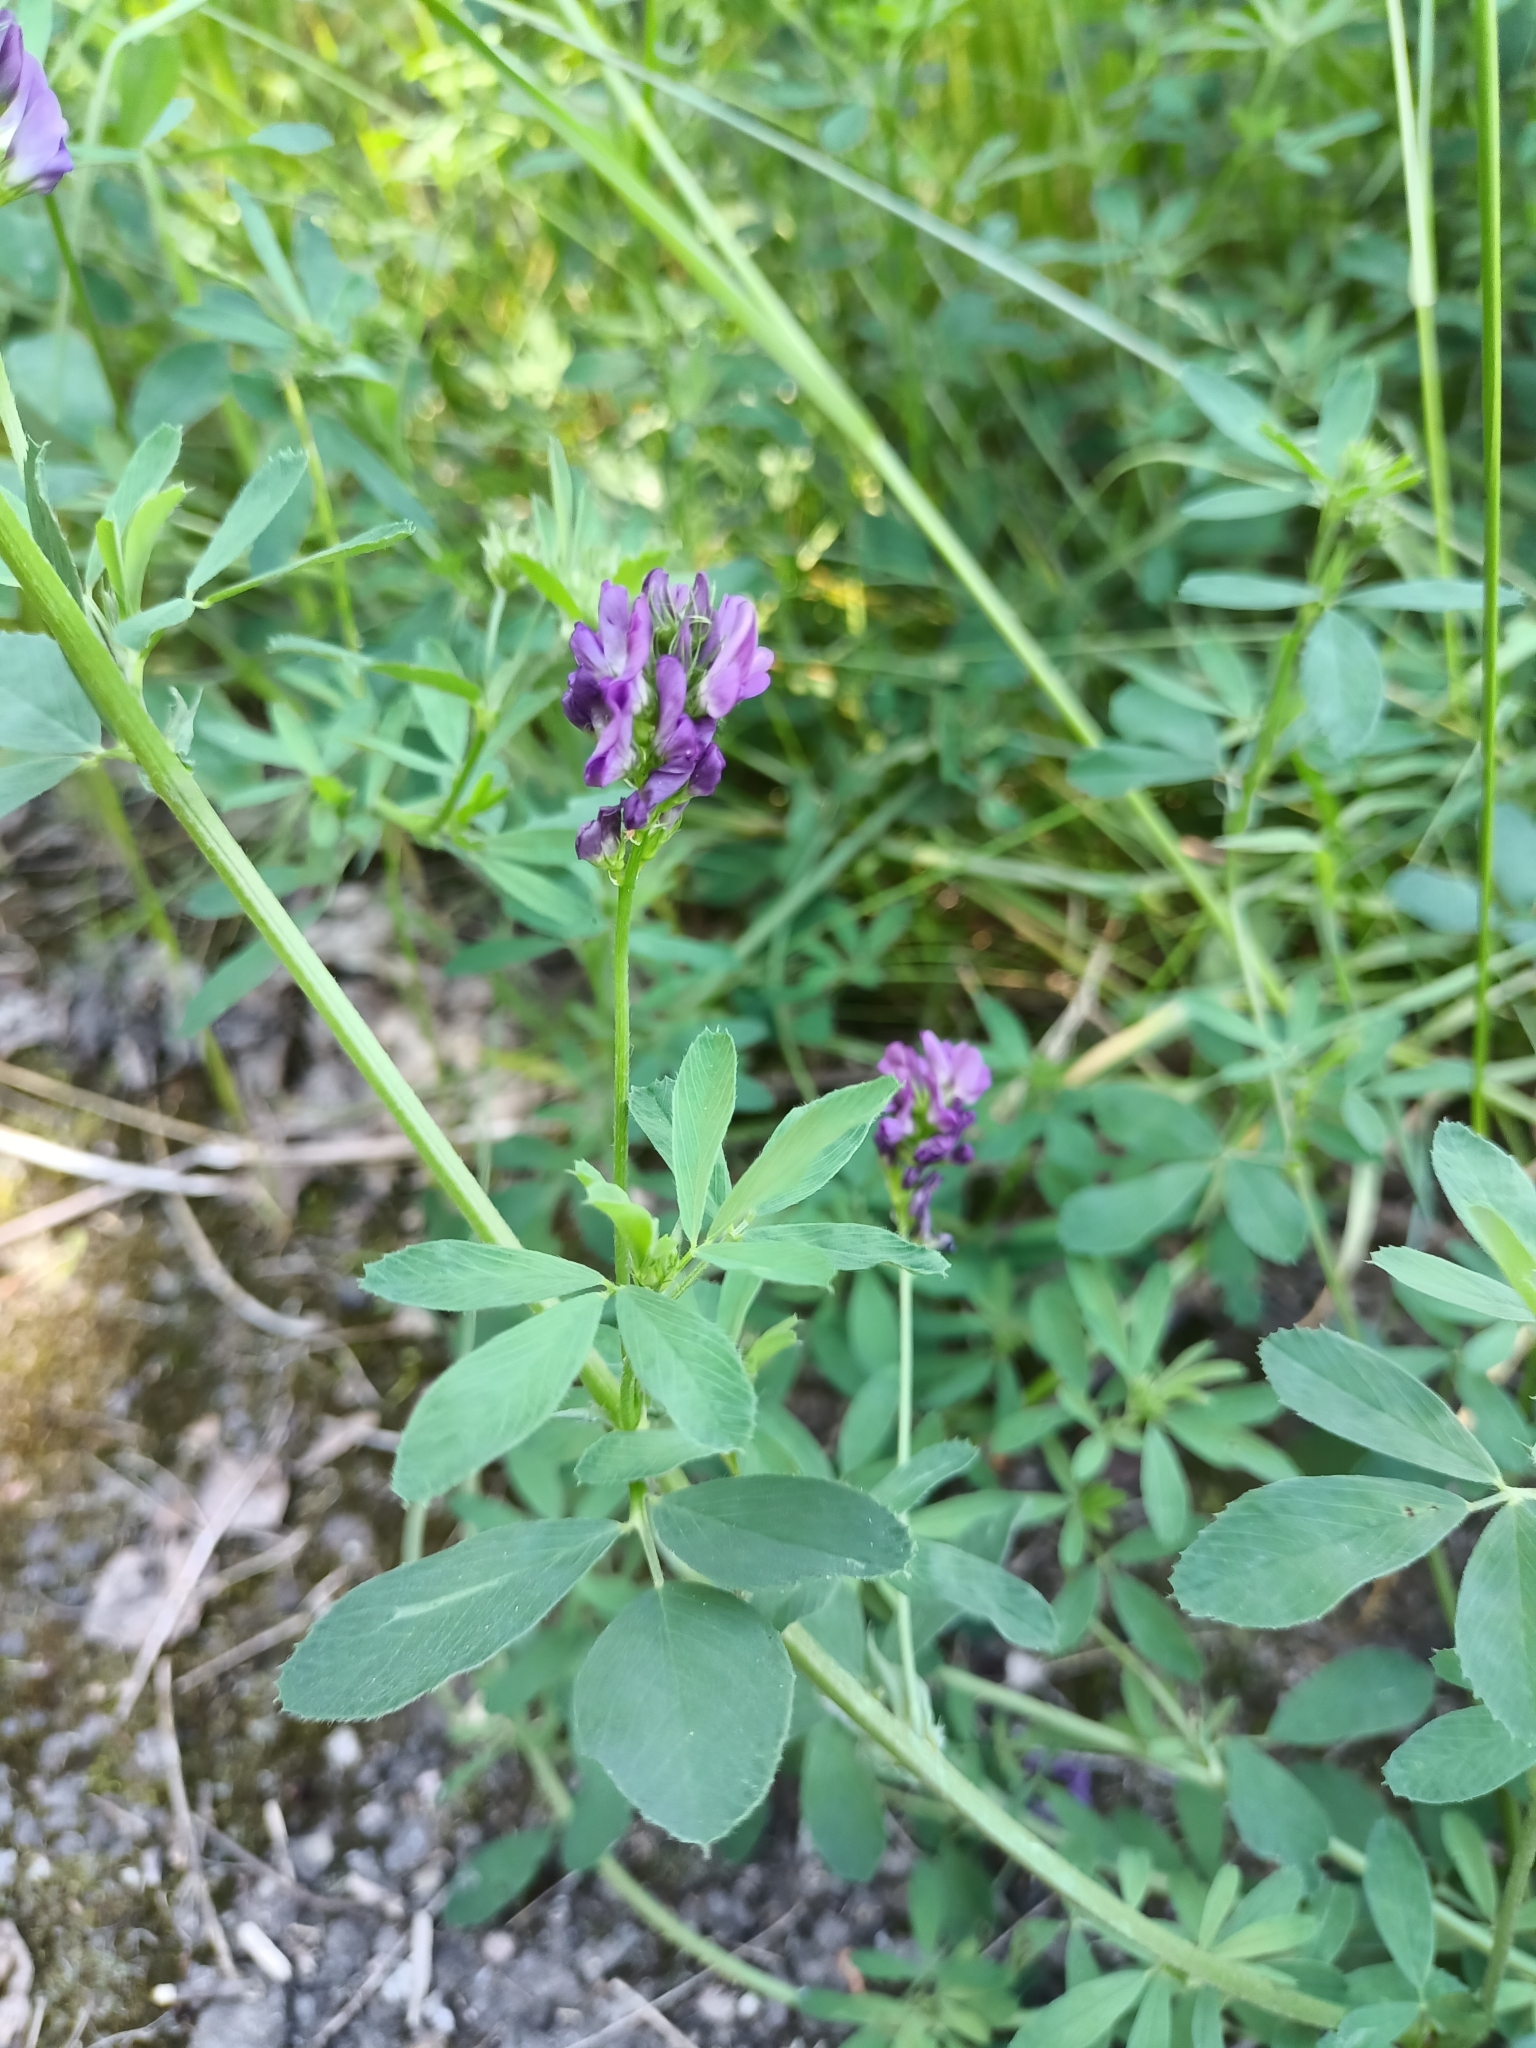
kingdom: Plantae
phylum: Tracheophyta
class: Magnoliopsida
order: Fabales
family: Fabaceae
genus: Medicago
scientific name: Medicago sativa
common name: Alfalfa
